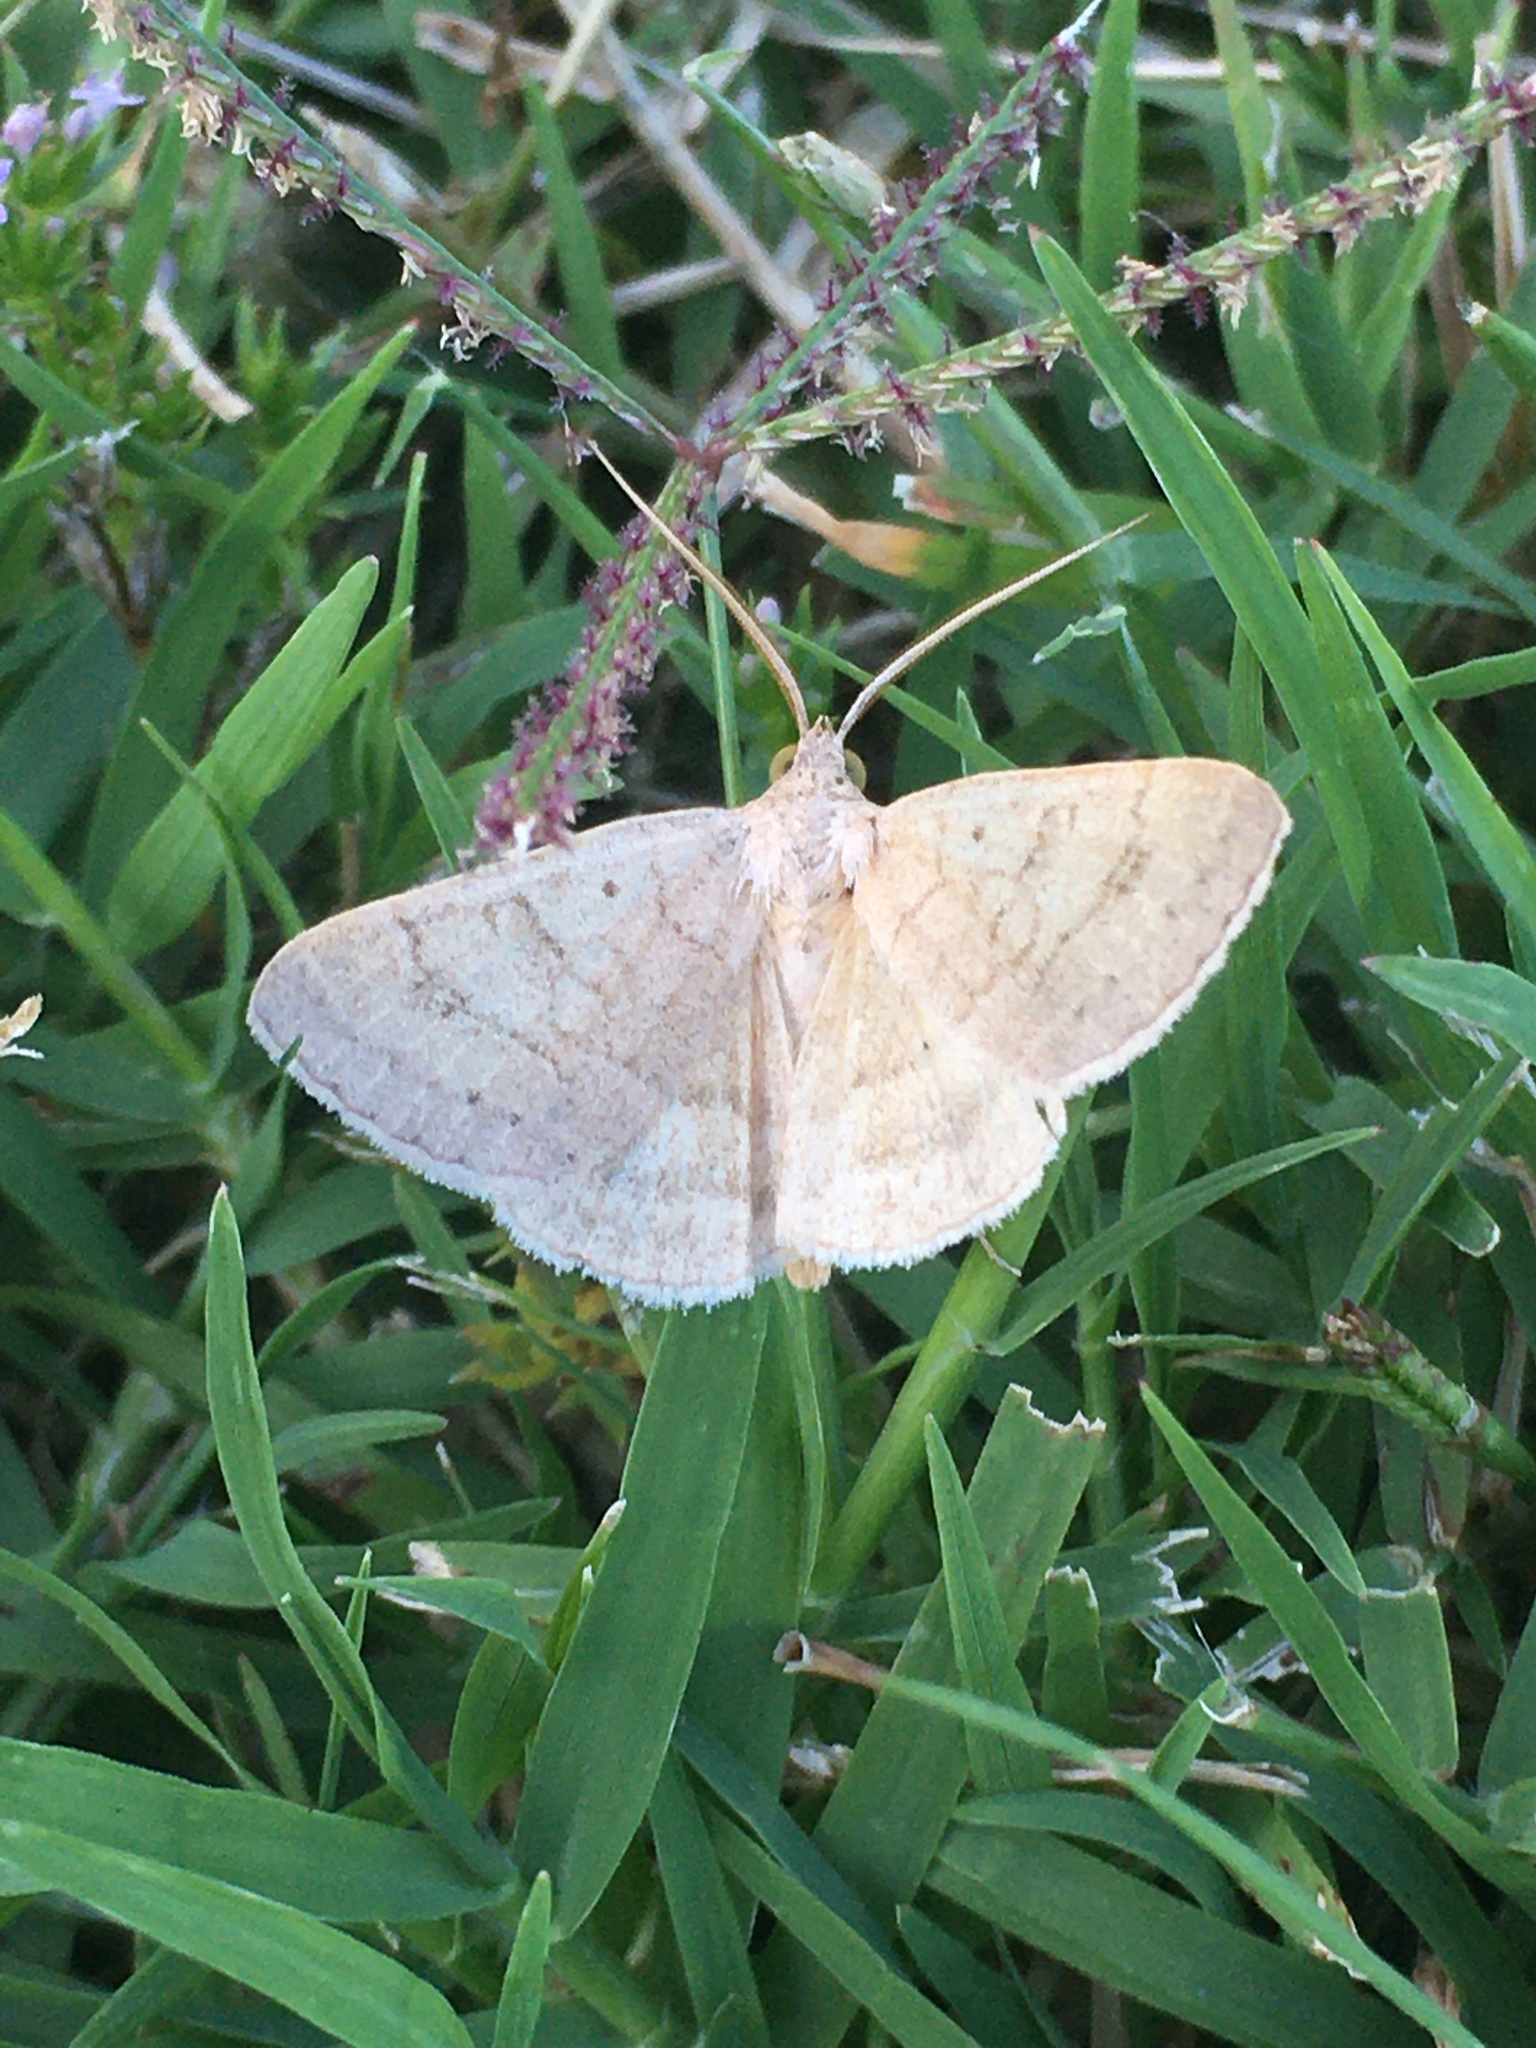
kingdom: Animalia
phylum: Arthropoda
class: Insecta
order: Lepidoptera
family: Erebidae
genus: Caenurgia
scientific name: Caenurgia chloropha
